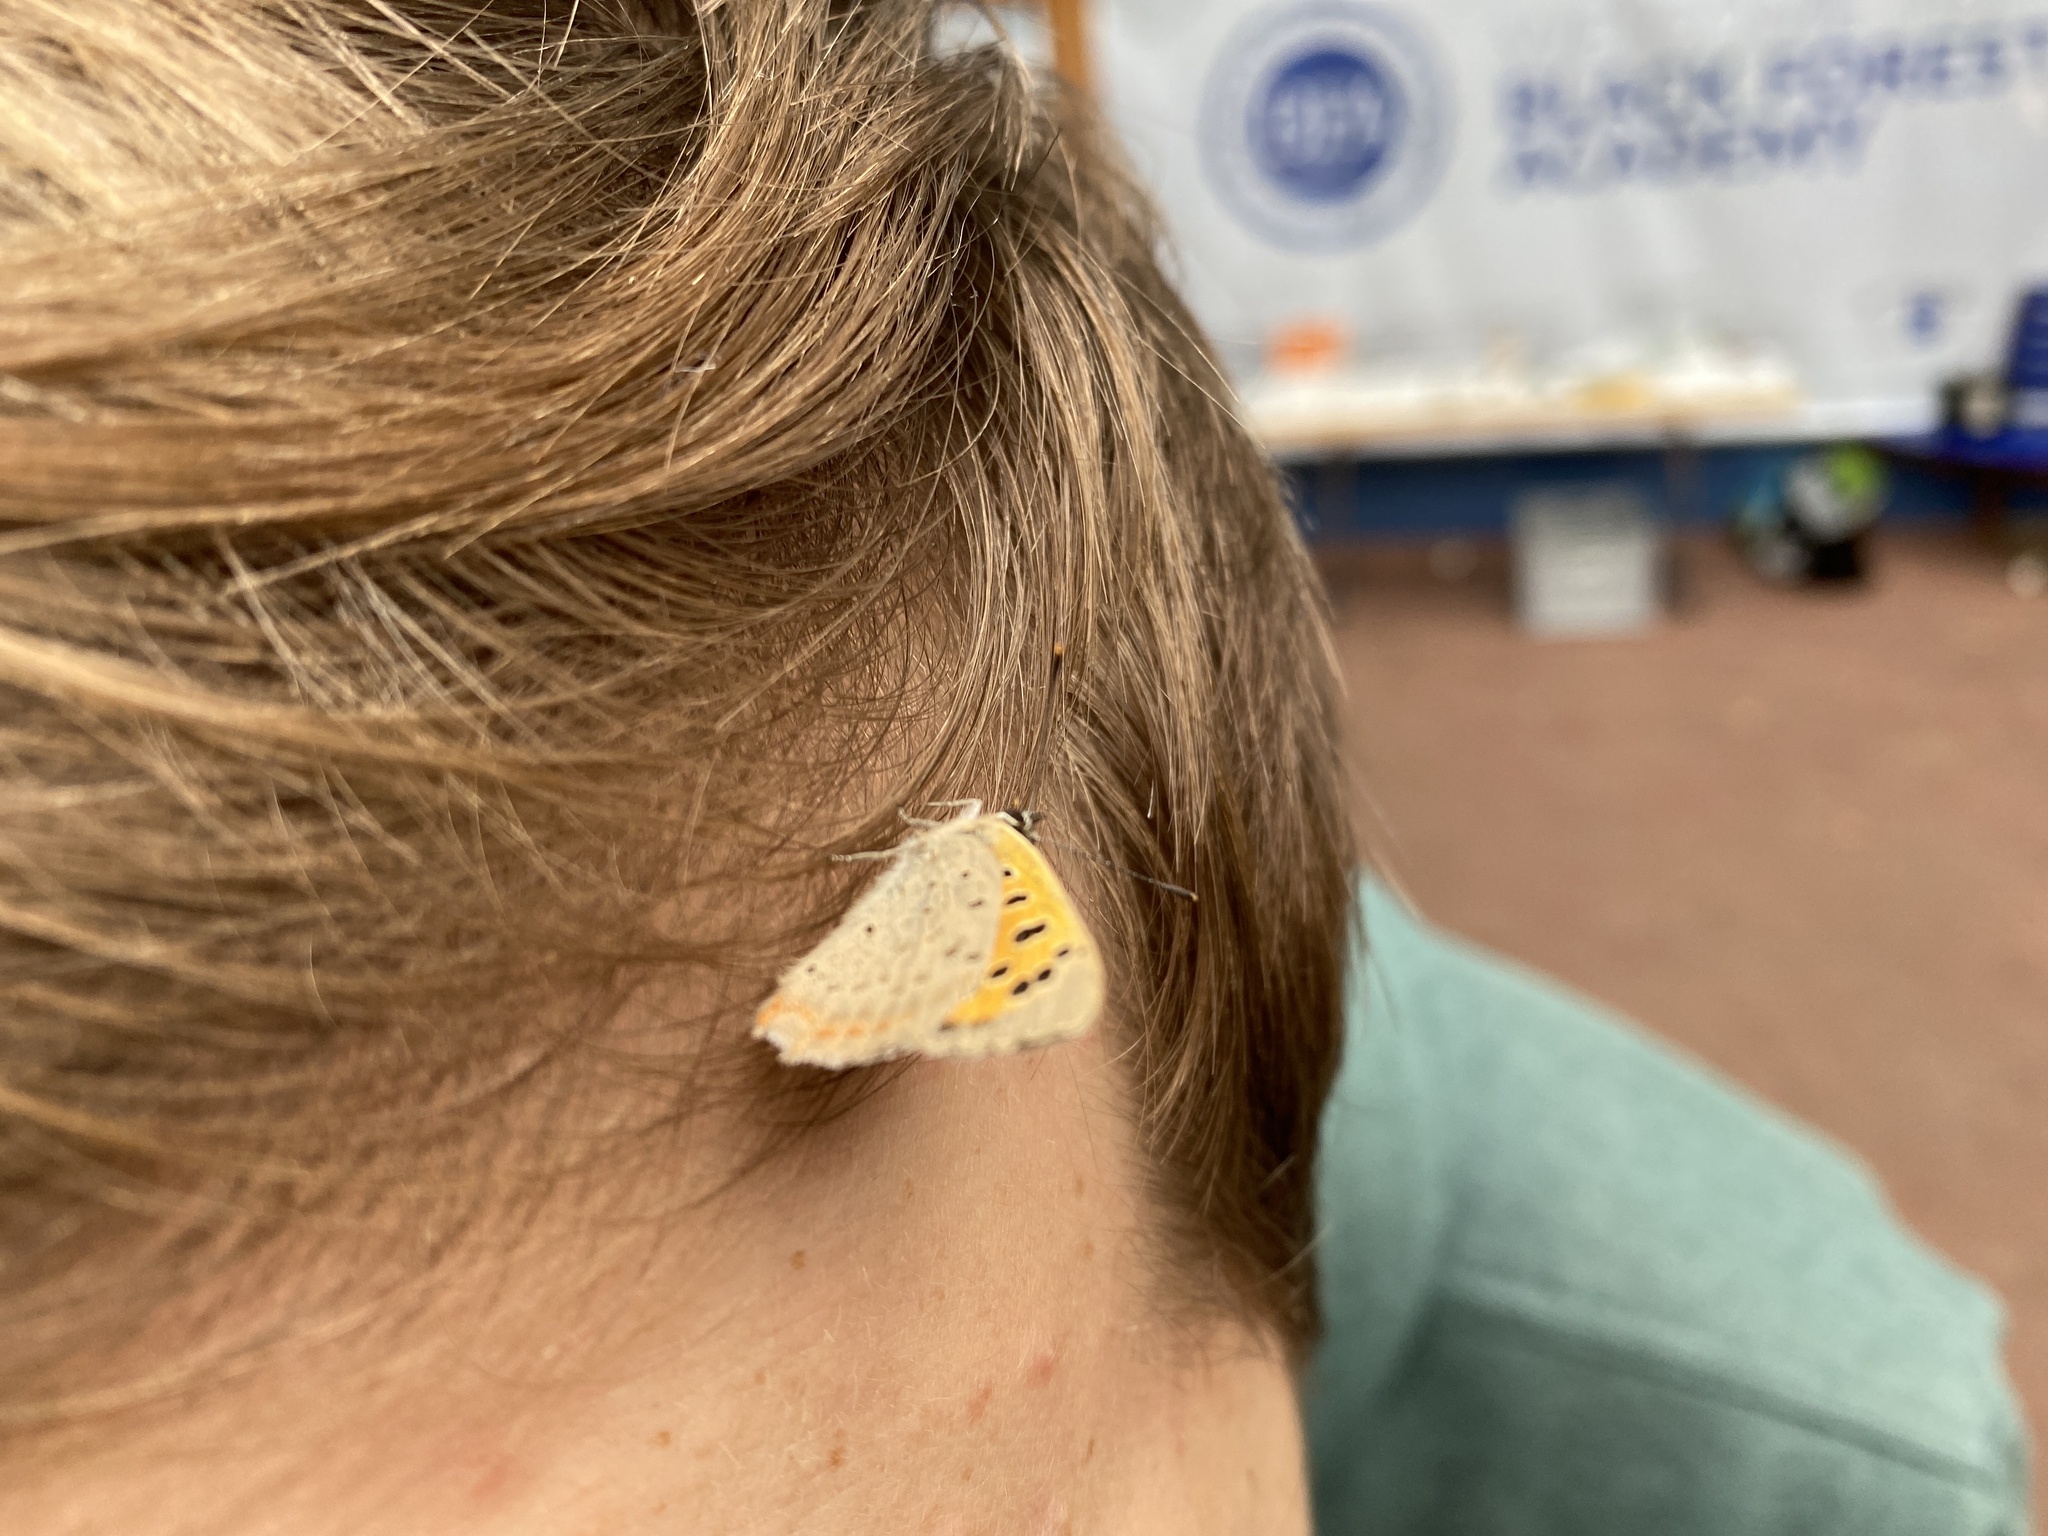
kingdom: Animalia
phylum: Arthropoda
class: Insecta
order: Lepidoptera
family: Lycaenidae
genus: Lycaena
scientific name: Lycaena phlaeas
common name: Small copper
